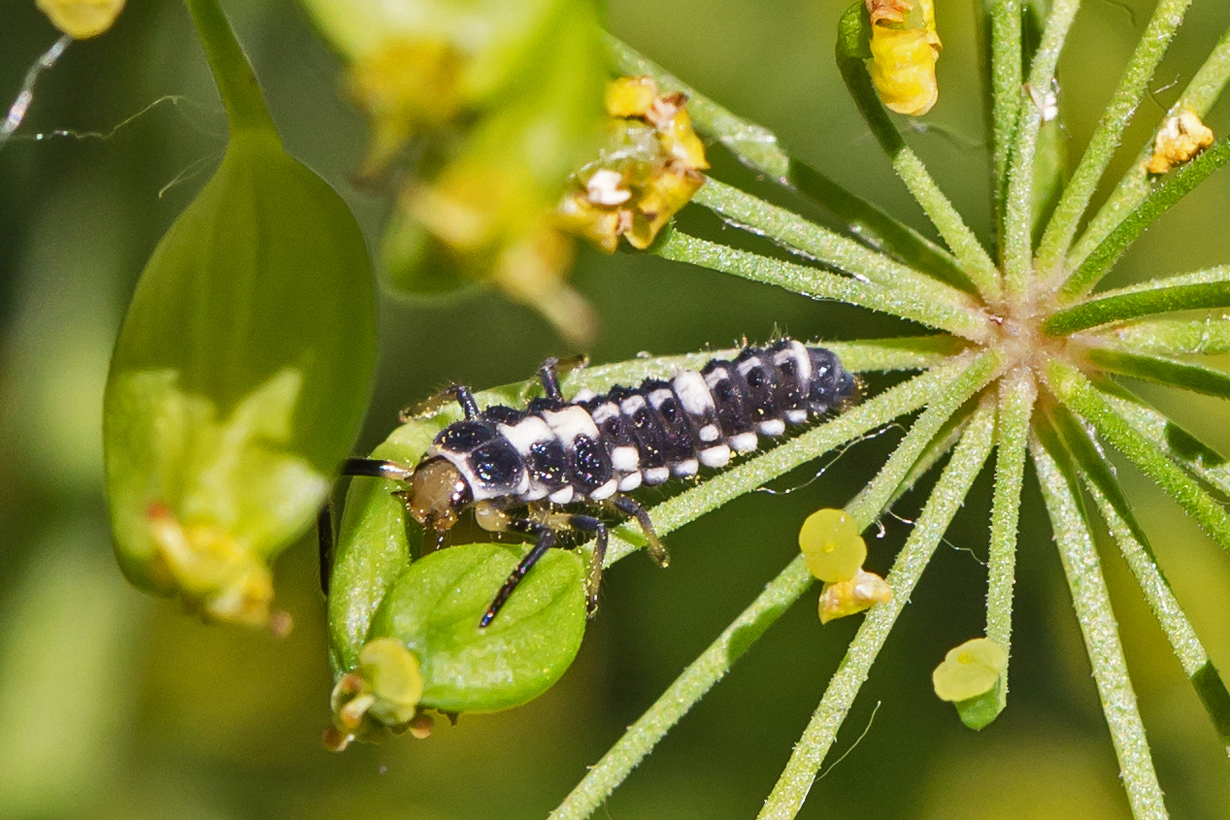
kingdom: Animalia
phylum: Arthropoda
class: Insecta
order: Coleoptera
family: Coccinellidae
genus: Propylaea
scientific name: Propylaea quatuordecimpunctata
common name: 14-spotted ladybird beetle
